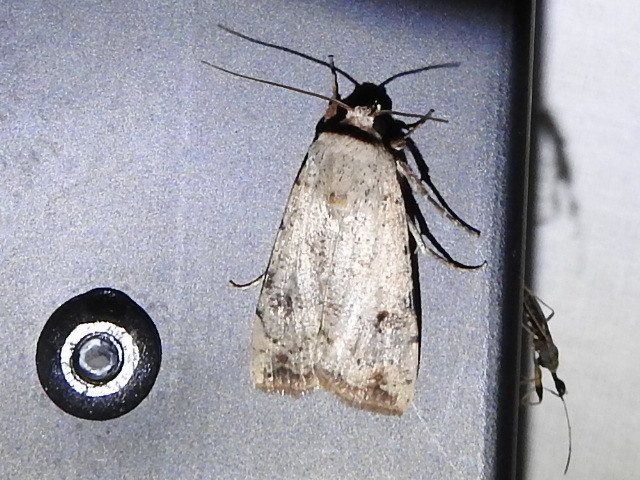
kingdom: Animalia
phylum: Arthropoda
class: Insecta
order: Lepidoptera
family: Noctuidae
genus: Anicla
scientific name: Anicla infecta
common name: Green cutworm
